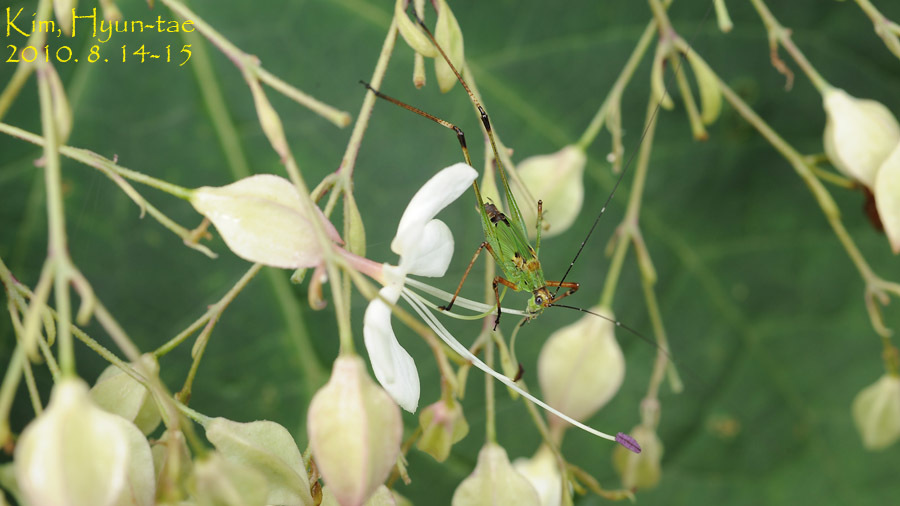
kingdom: Animalia
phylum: Arthropoda
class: Insecta
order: Orthoptera
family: Tettigoniidae
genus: Phaneroptera
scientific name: Phaneroptera nigroantennata
